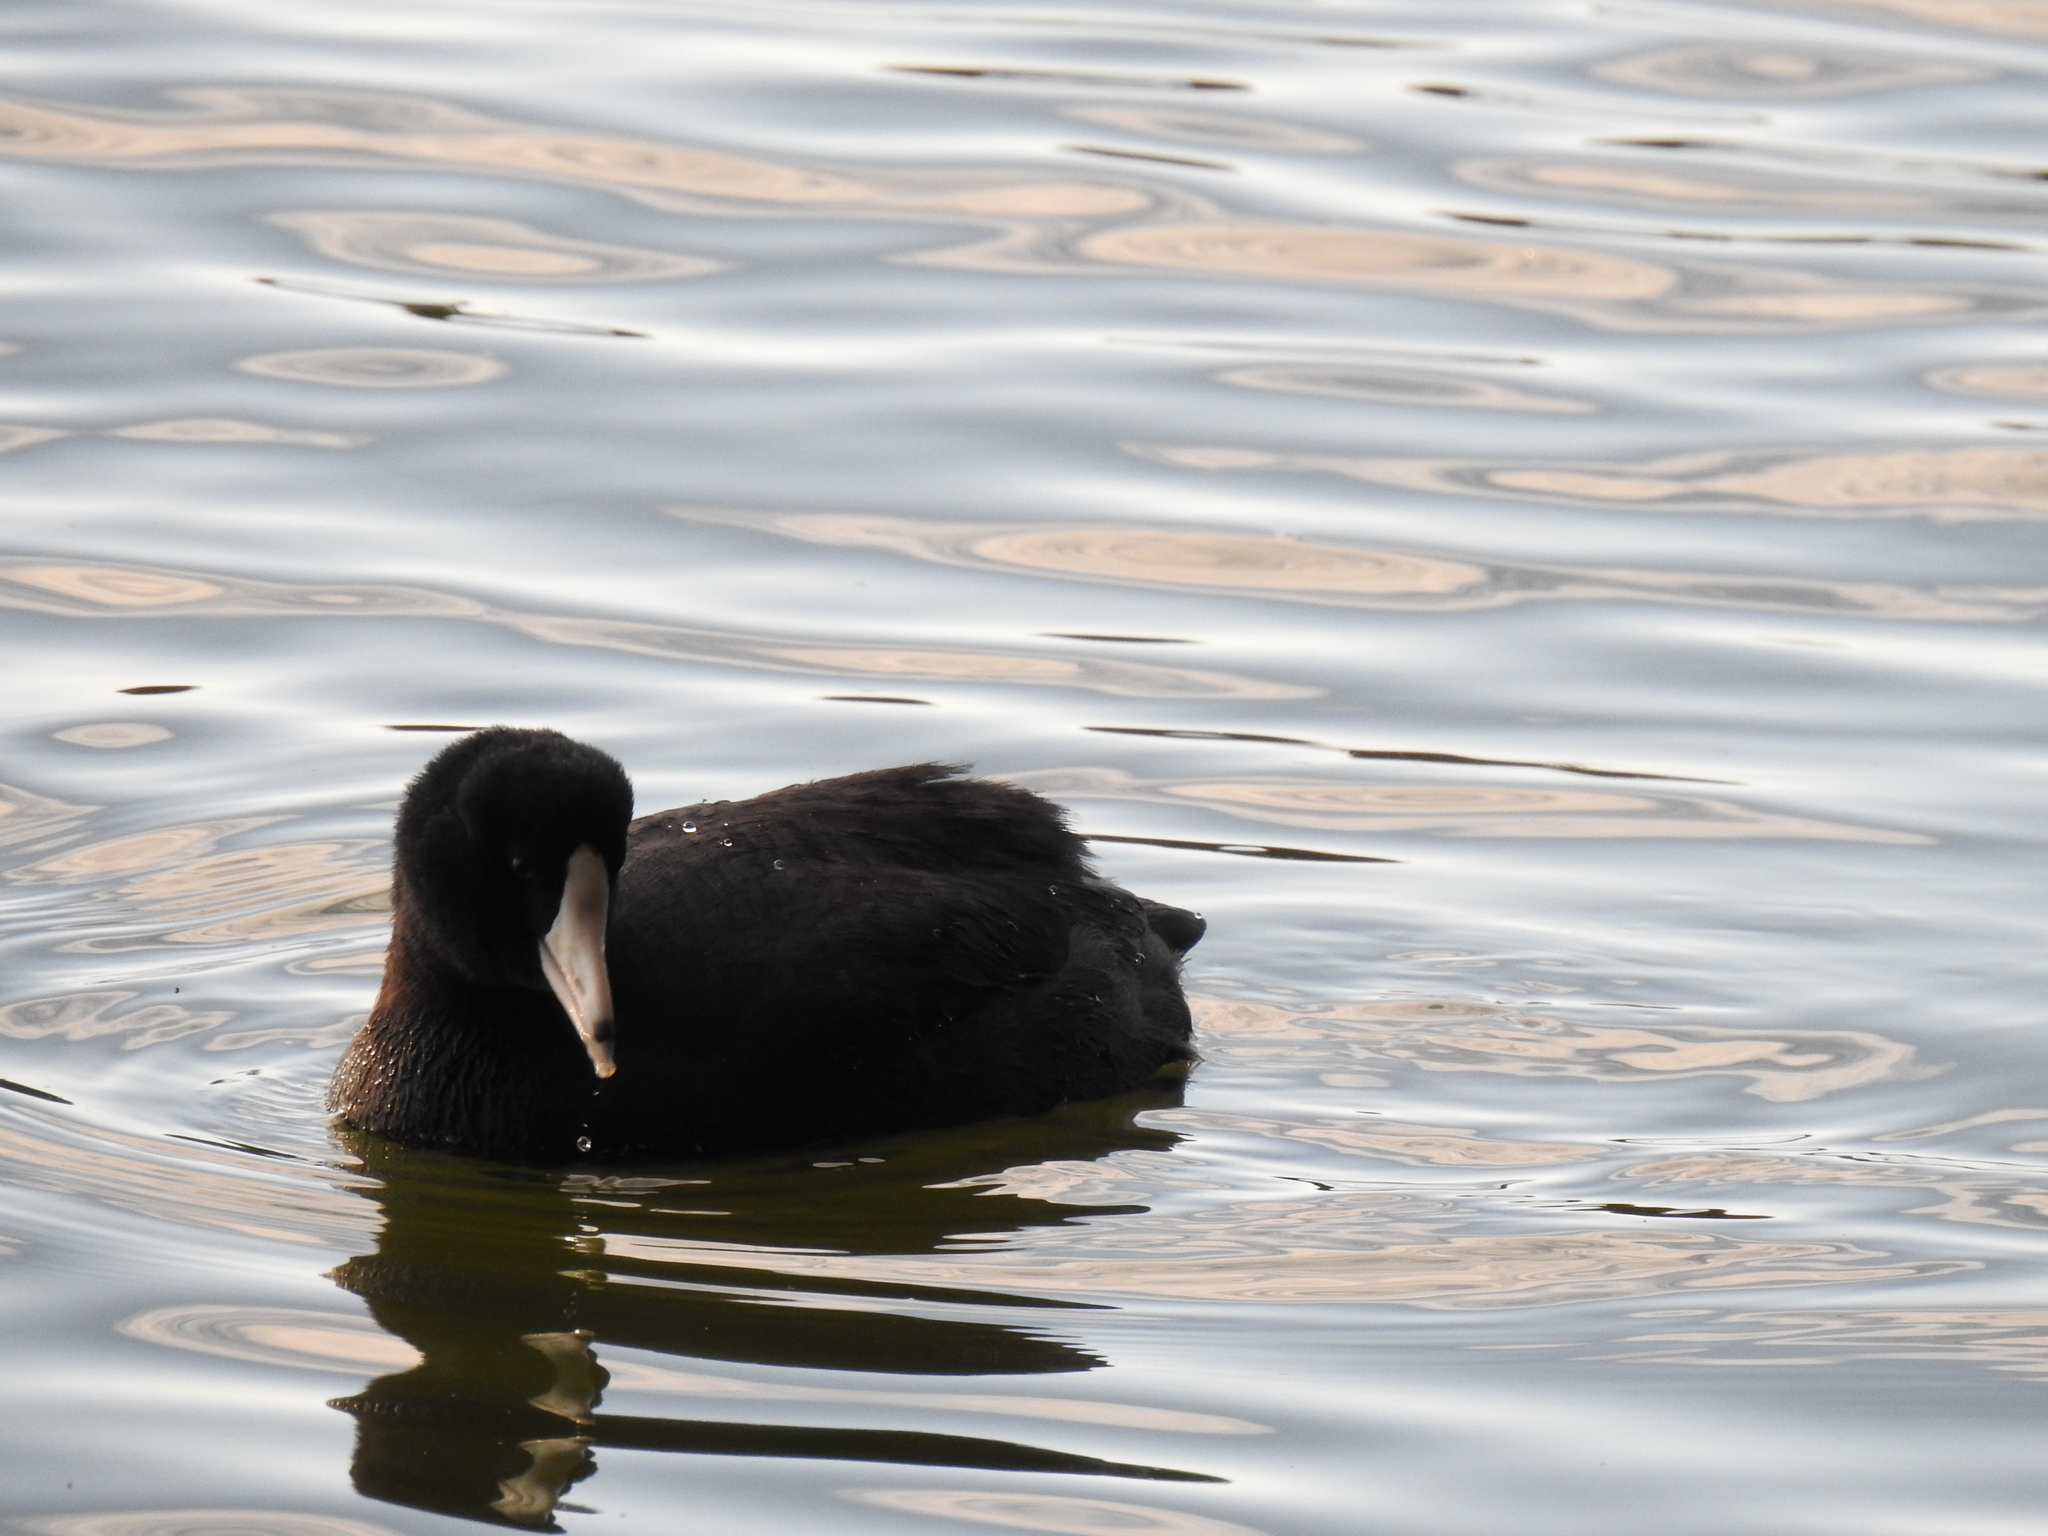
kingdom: Animalia
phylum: Chordata
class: Aves
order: Gruiformes
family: Rallidae
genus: Fulica
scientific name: Fulica americana
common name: American coot
